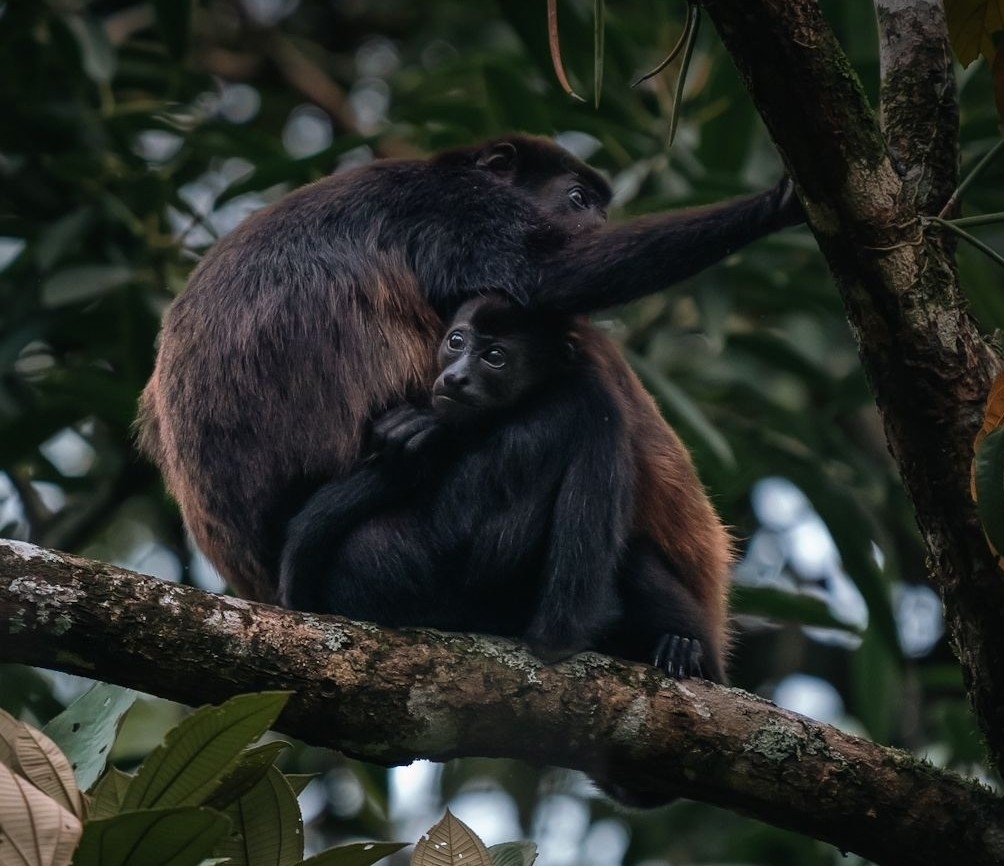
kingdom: Animalia
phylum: Chordata
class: Mammalia
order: Primates
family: Atelidae
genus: Alouatta
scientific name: Alouatta palliata
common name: Mantled howler
